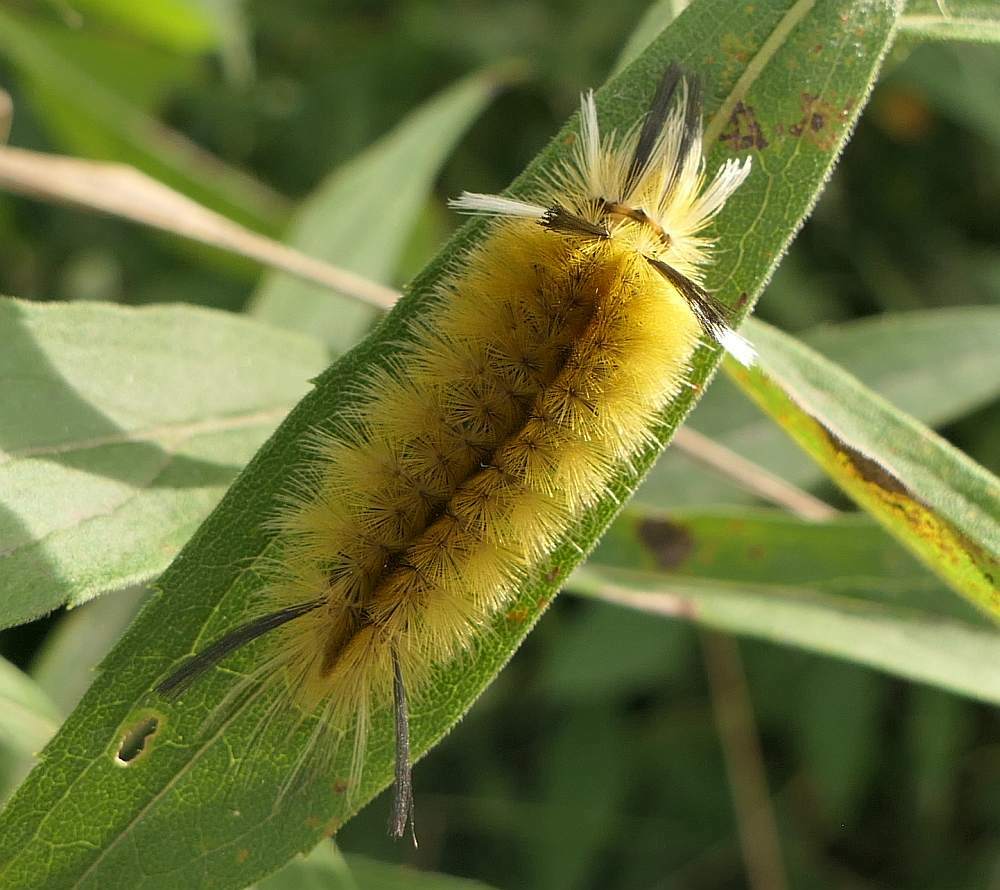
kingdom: Animalia
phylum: Arthropoda
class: Insecta
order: Lepidoptera
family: Erebidae
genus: Halysidota
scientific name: Halysidota tessellaris
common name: Banded tussock moth
